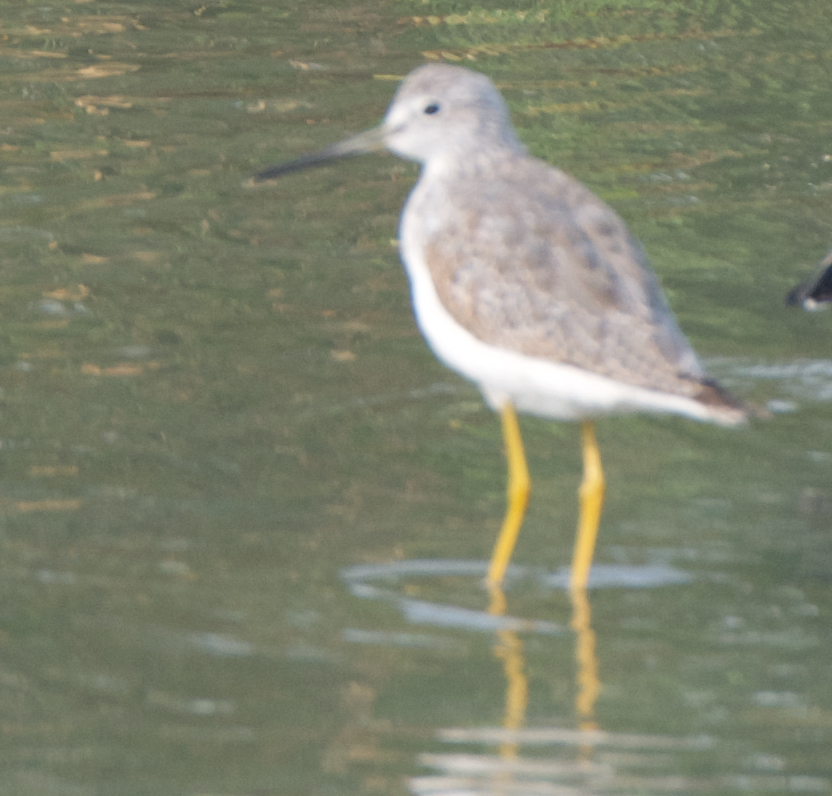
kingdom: Animalia
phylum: Chordata
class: Aves
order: Charadriiformes
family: Scolopacidae
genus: Tringa
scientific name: Tringa melanoleuca
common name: Greater yellowlegs
